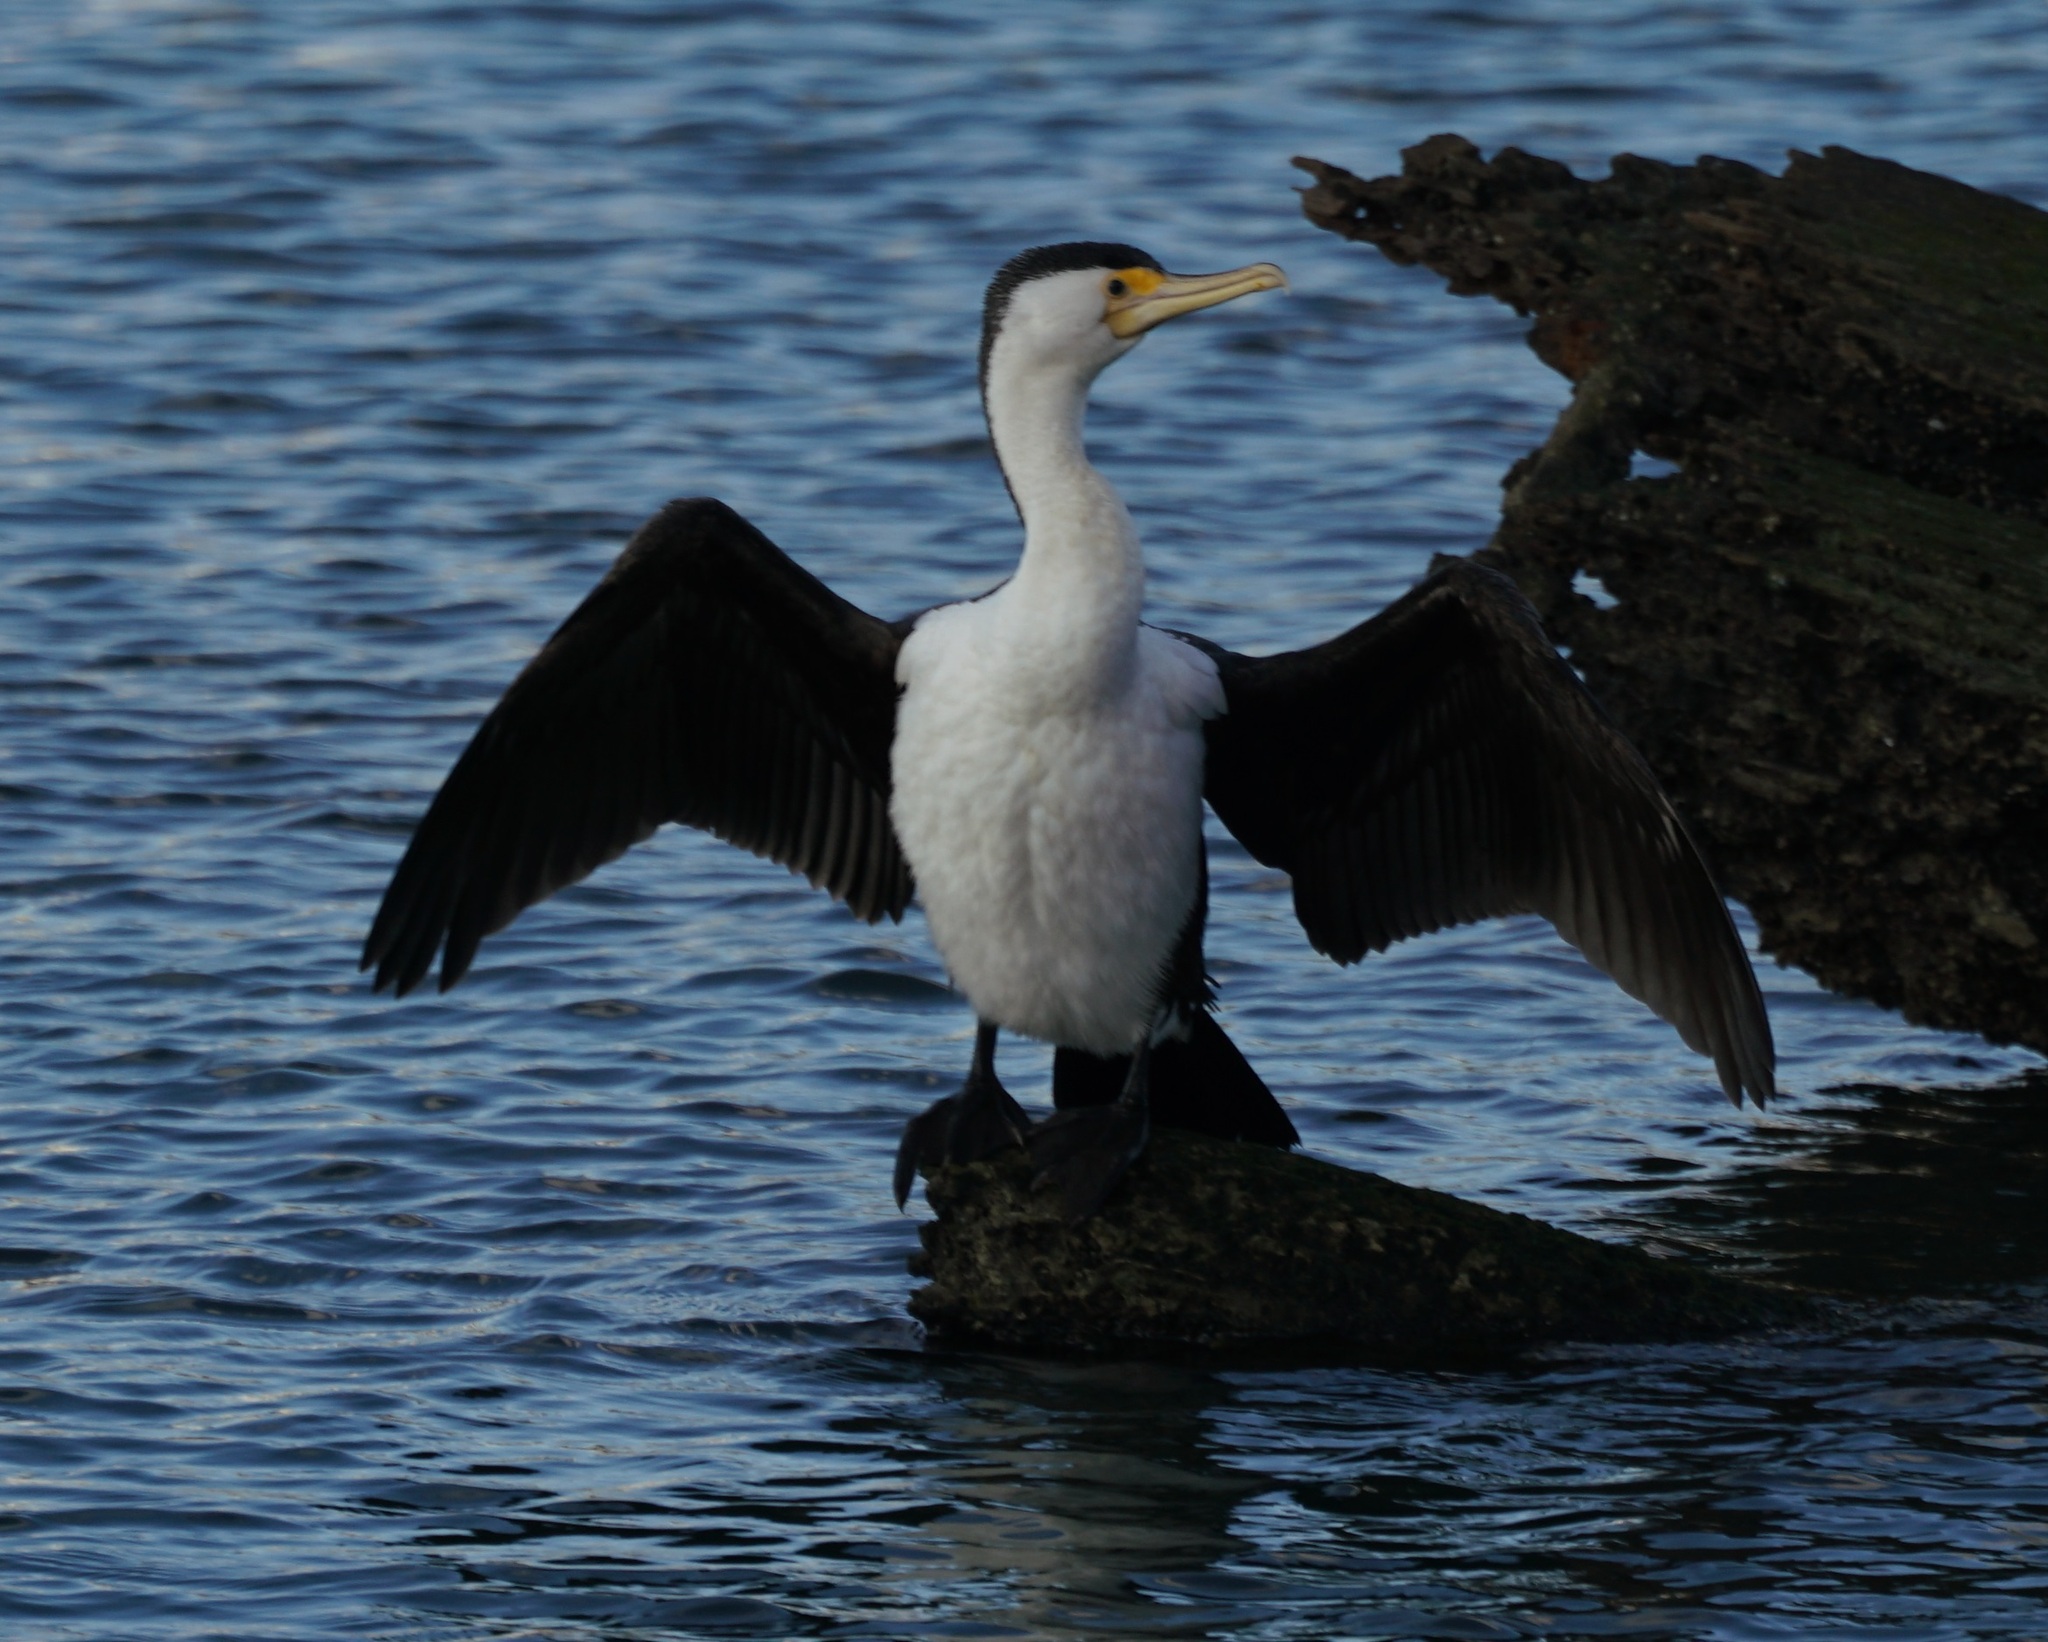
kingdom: Animalia
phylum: Chordata
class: Aves
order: Suliformes
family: Phalacrocoracidae
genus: Phalacrocorax
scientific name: Phalacrocorax varius
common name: Pied cormorant
